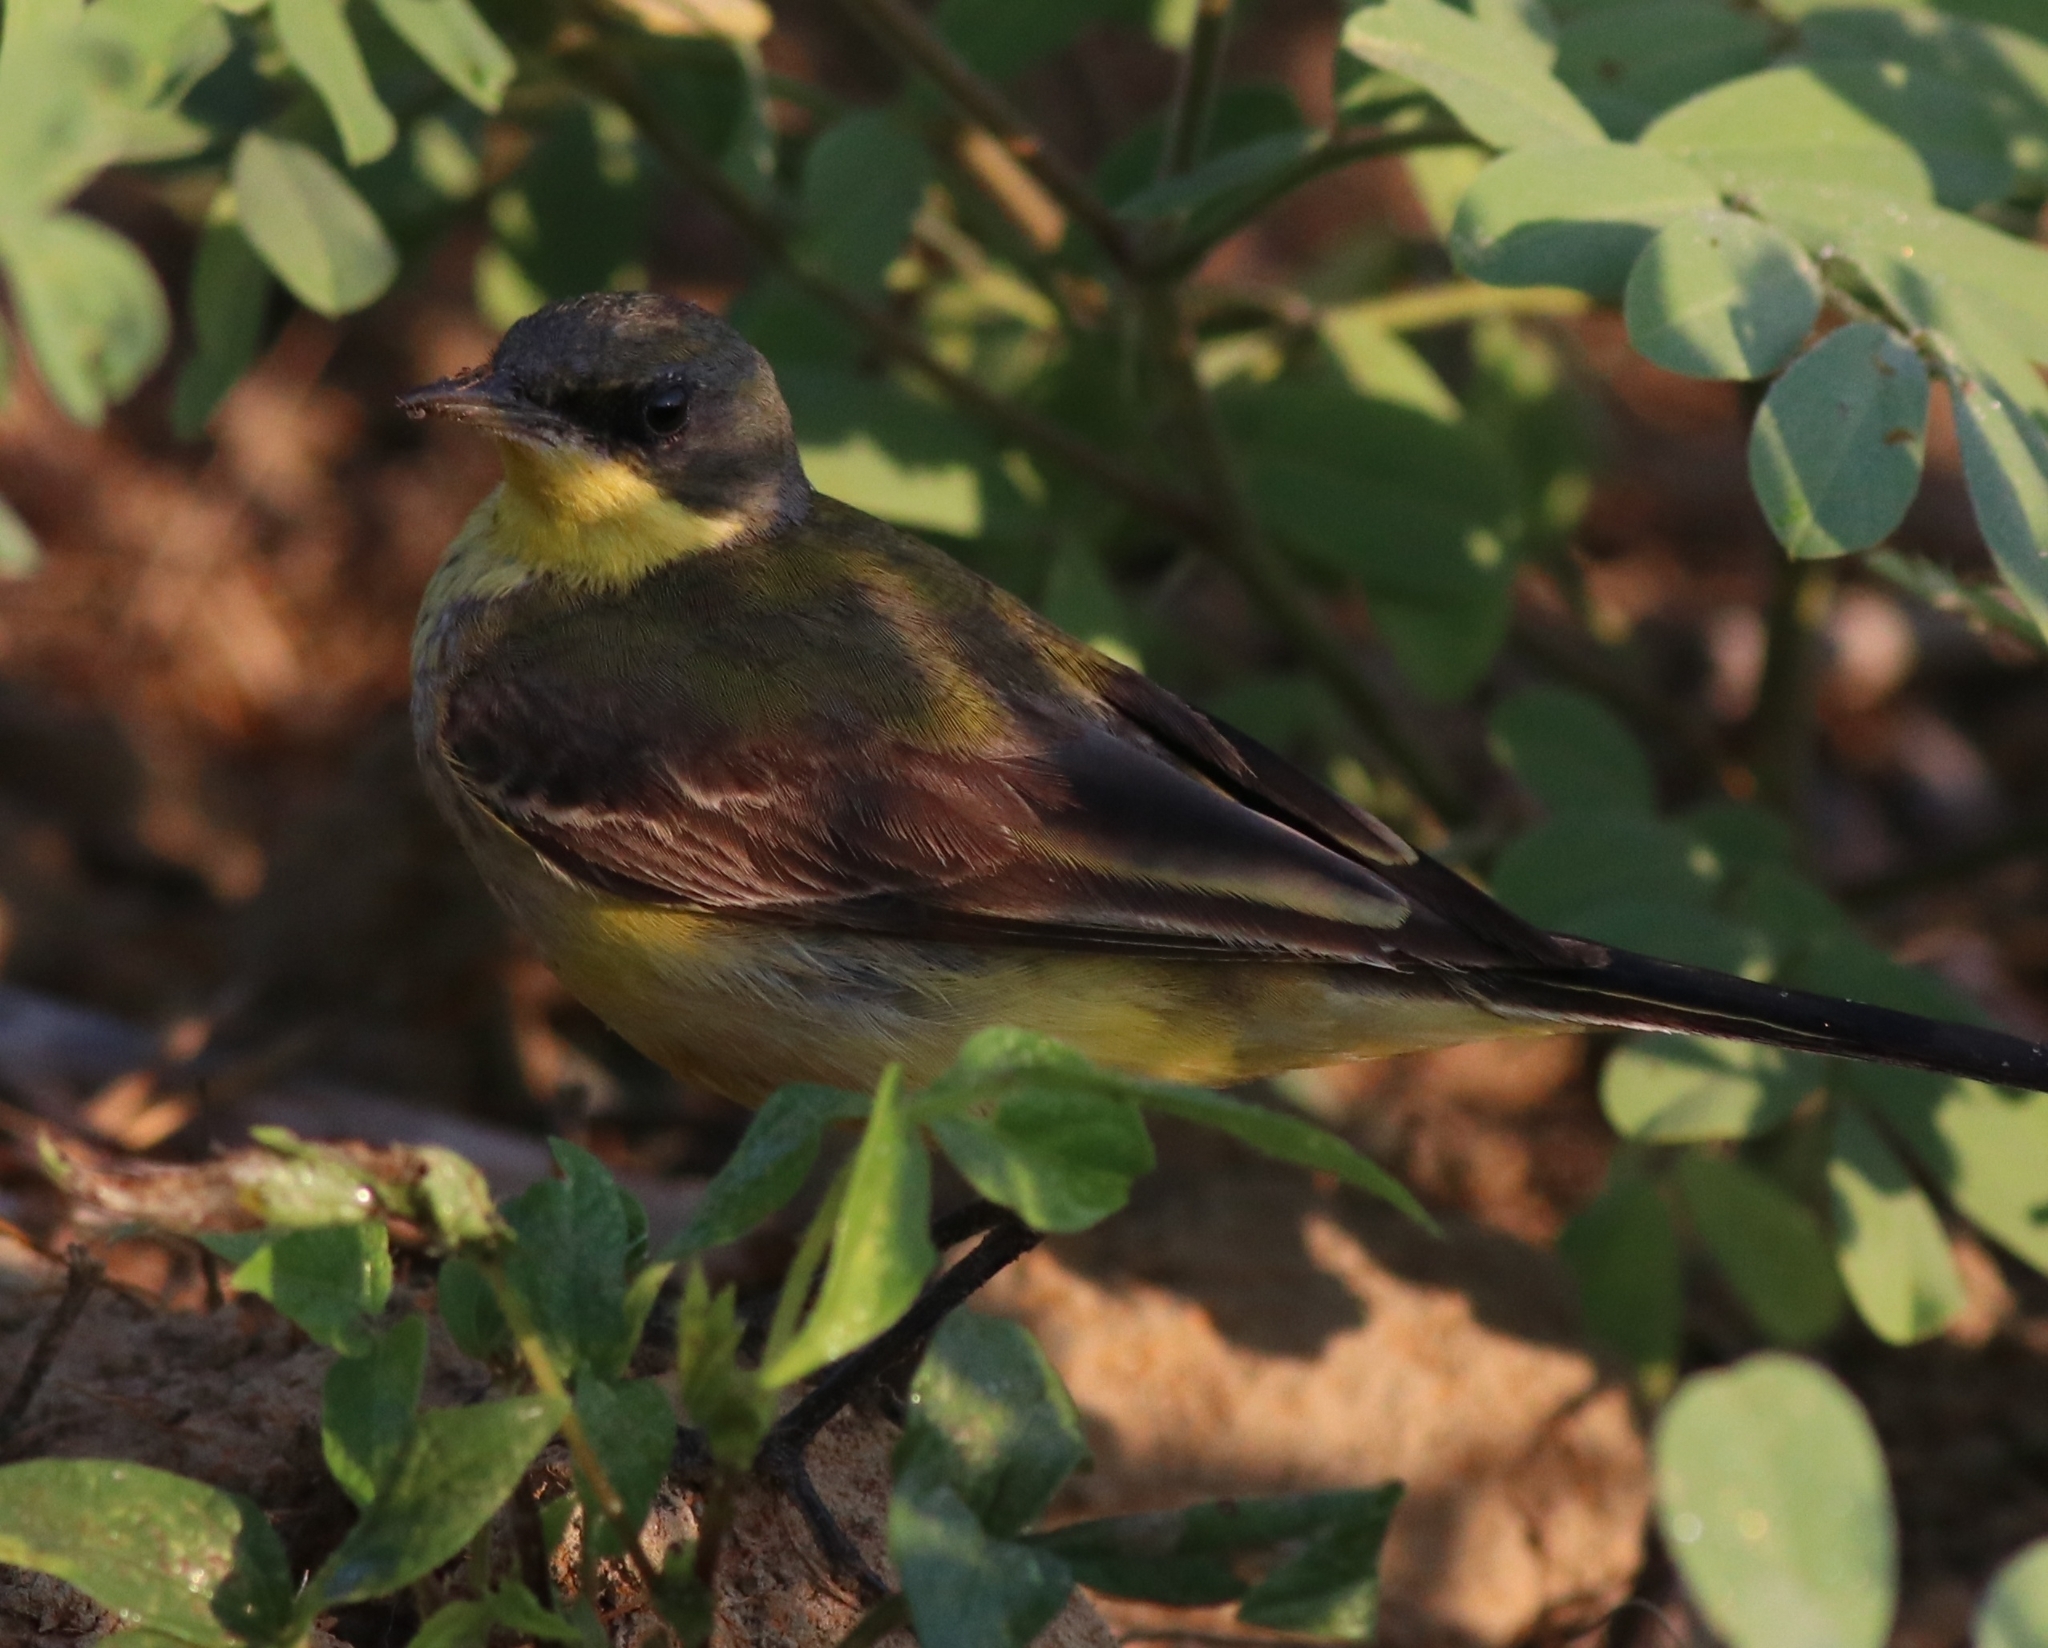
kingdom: Animalia
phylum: Chordata
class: Aves
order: Passeriformes
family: Motacillidae
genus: Motacilla
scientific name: Motacilla flava
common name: Western yellow wagtail
